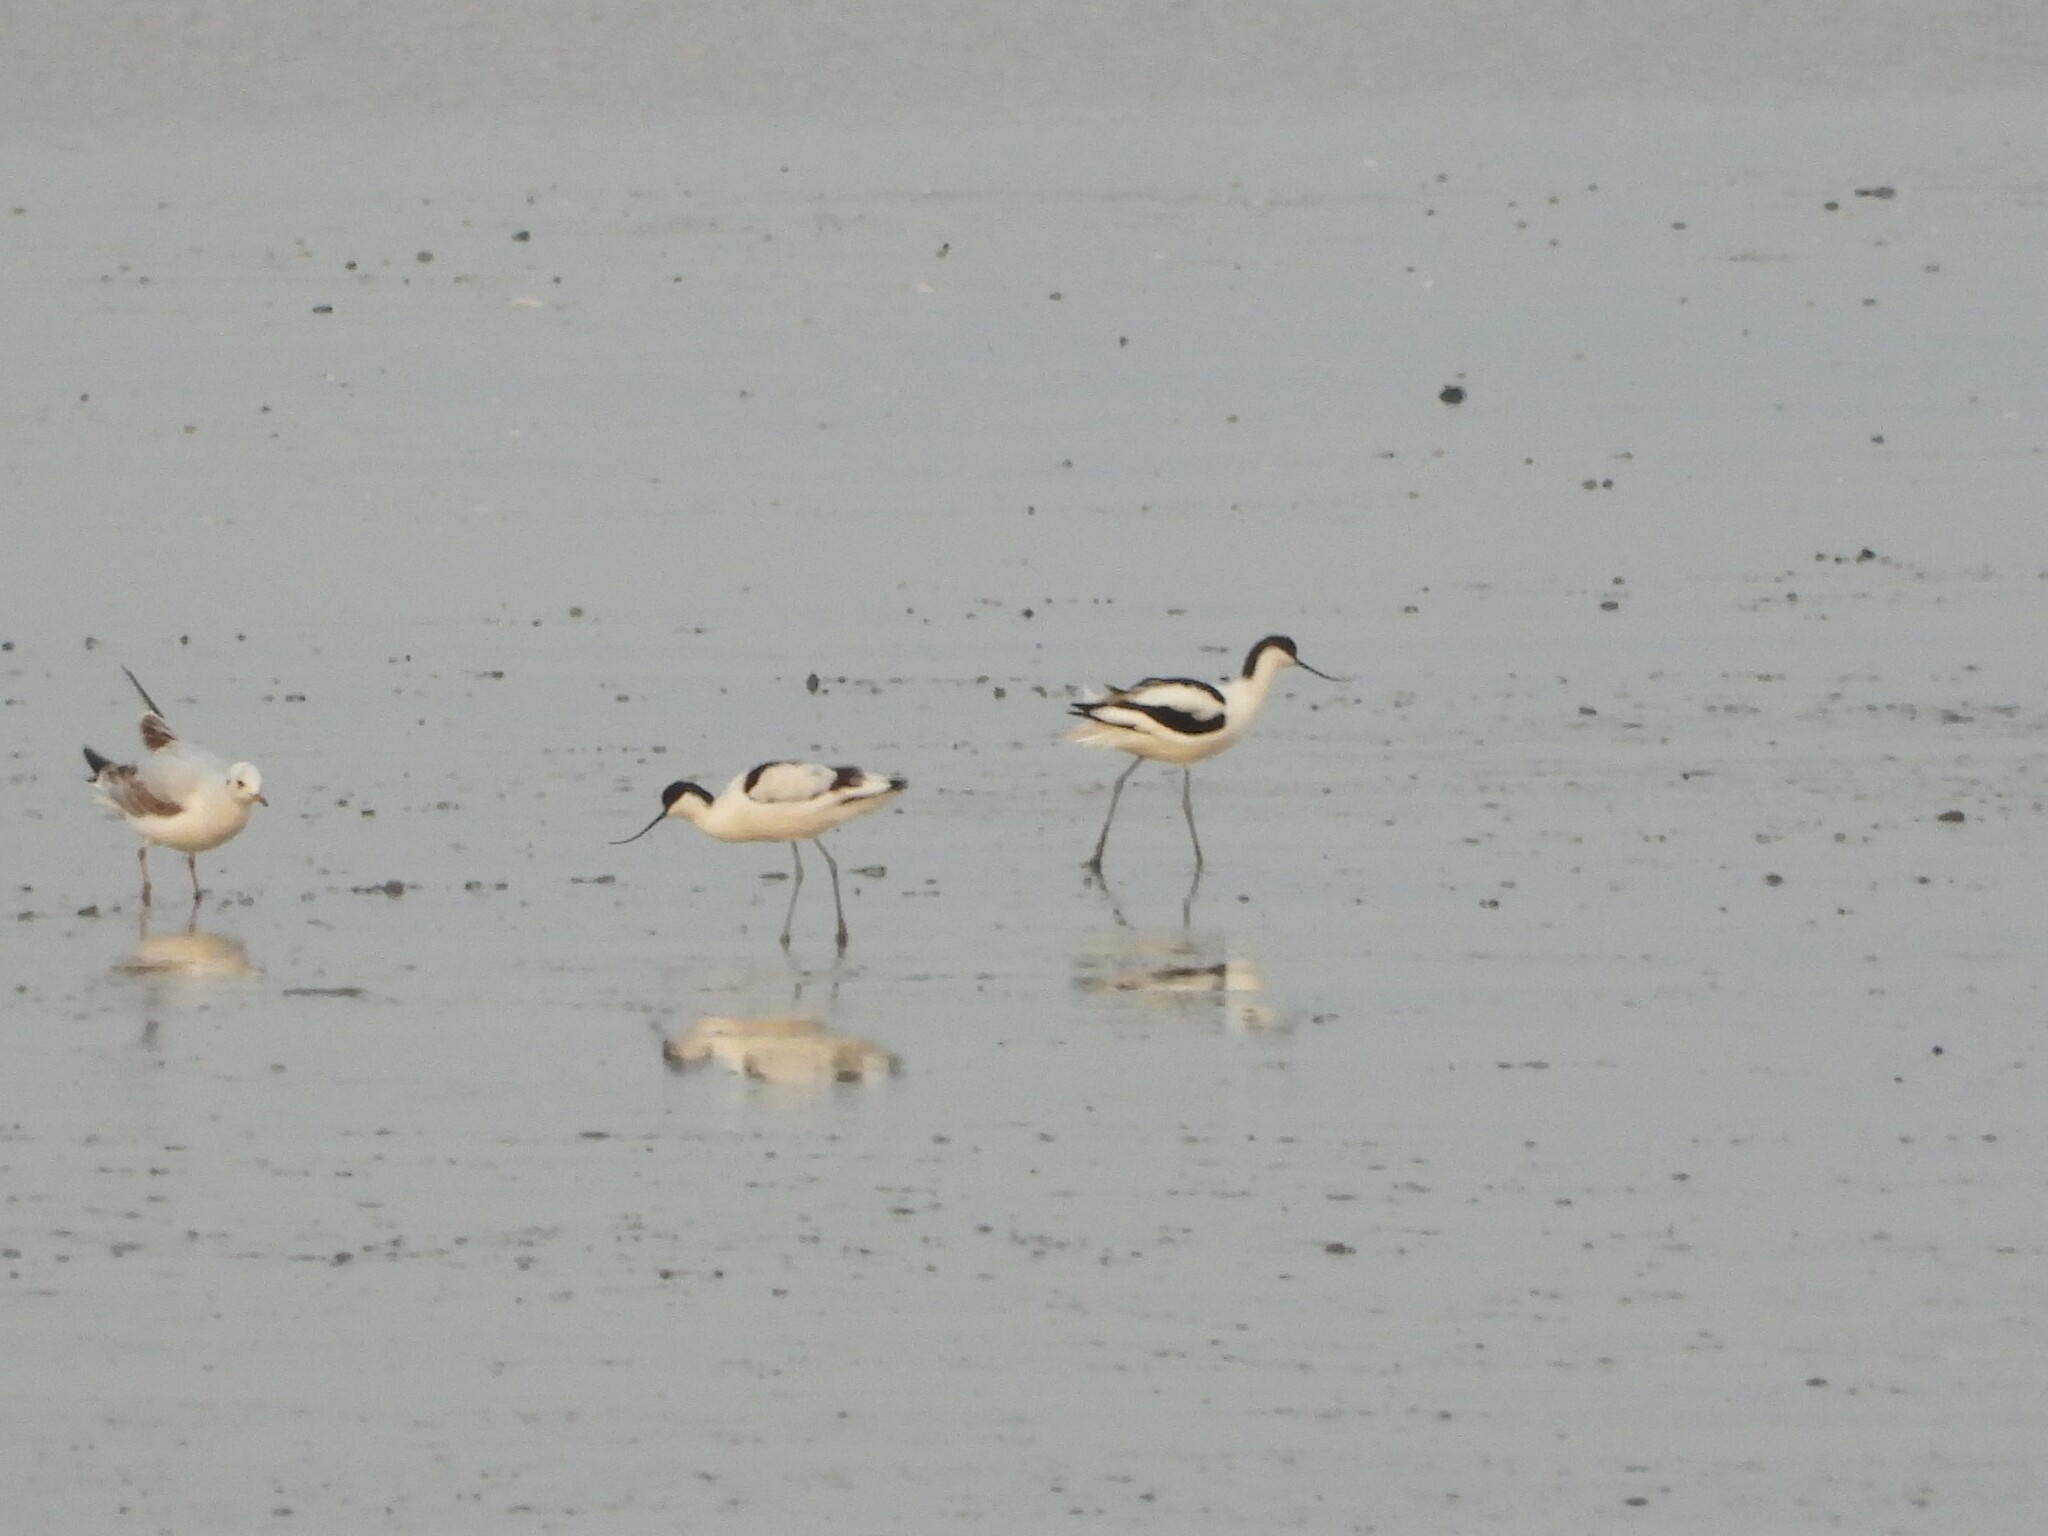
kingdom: Animalia
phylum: Chordata
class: Aves
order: Charadriiformes
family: Recurvirostridae
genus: Recurvirostra
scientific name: Recurvirostra avosetta
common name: Pied avocet
